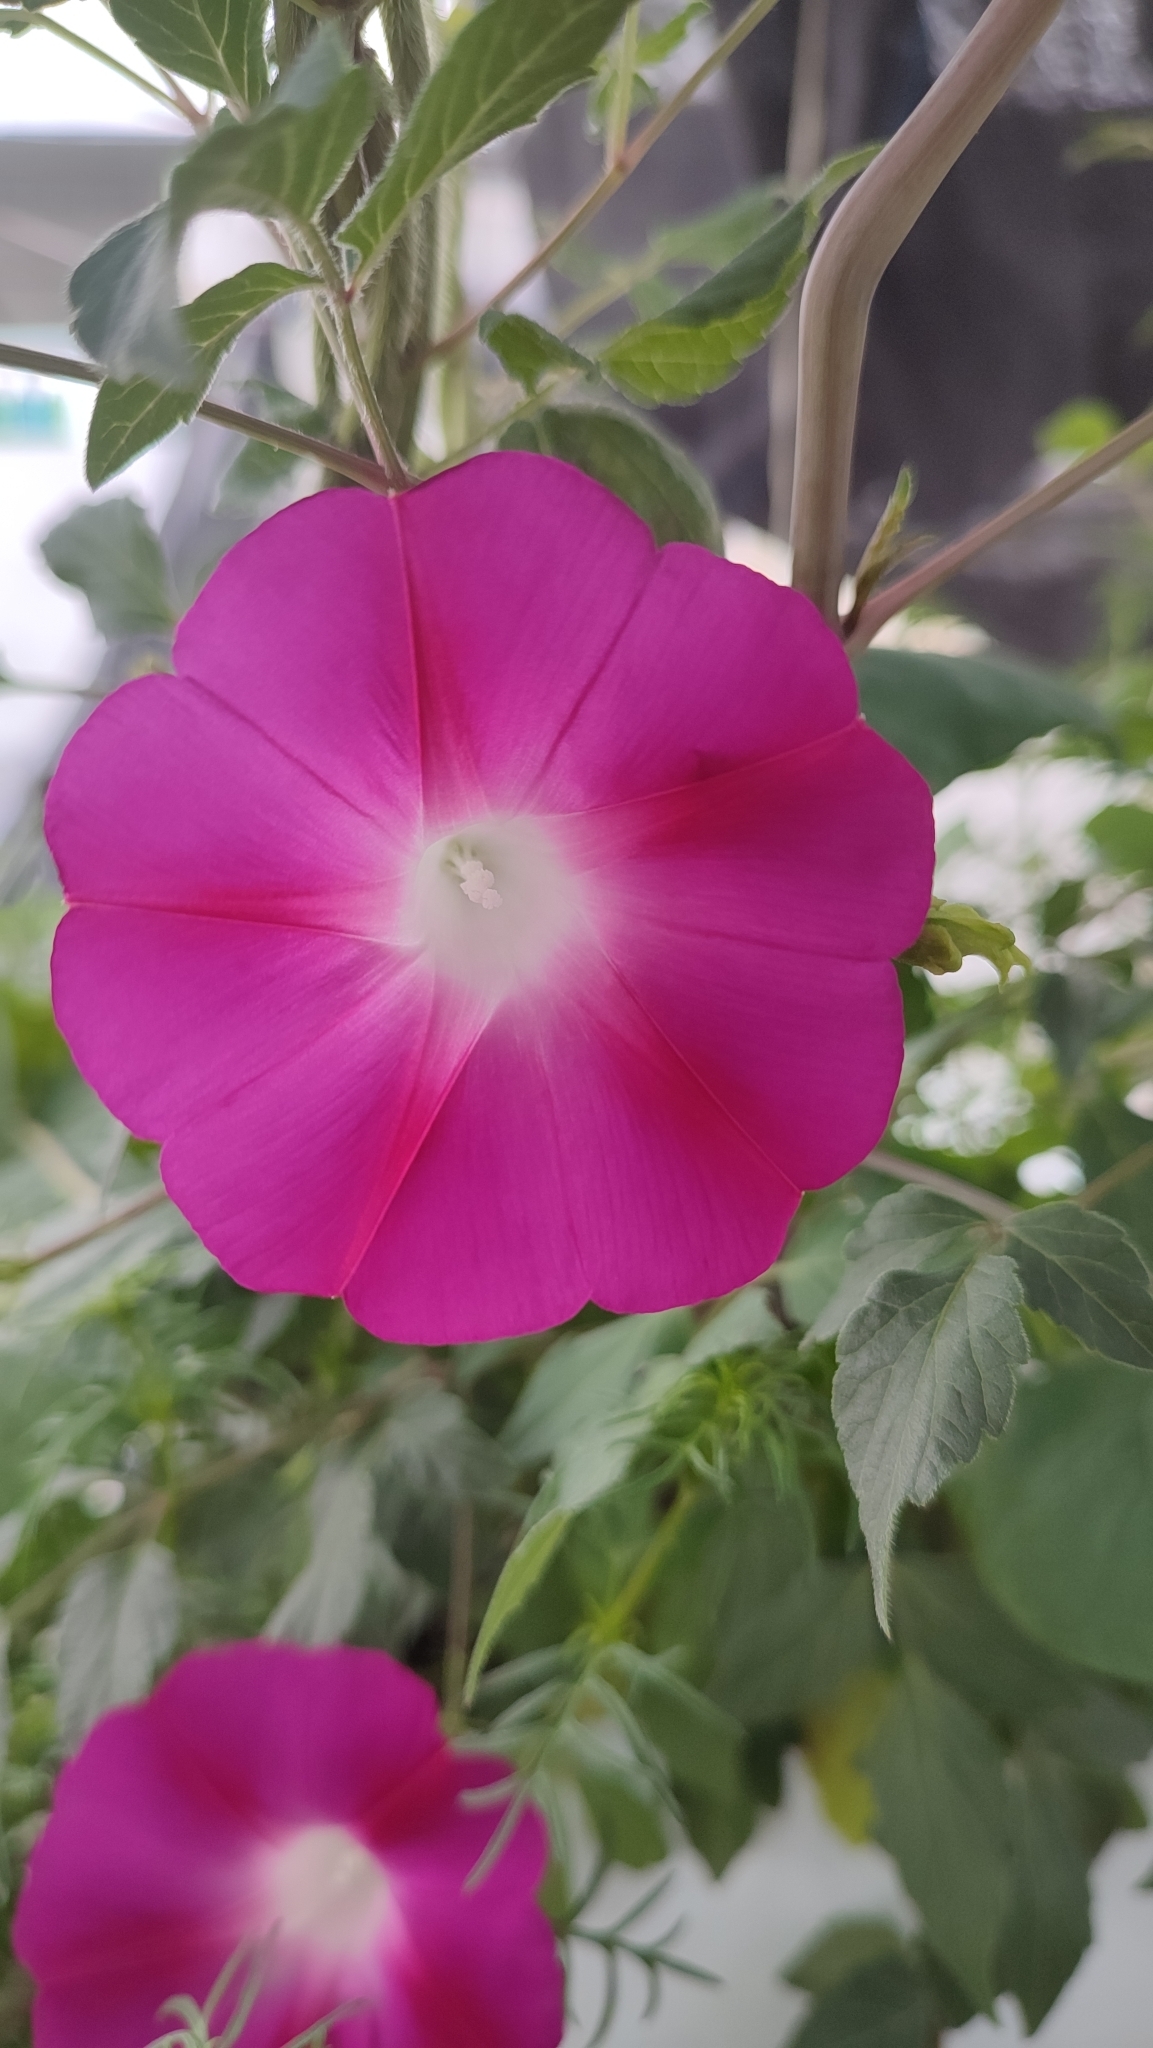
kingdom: Plantae
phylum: Tracheophyta
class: Magnoliopsida
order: Solanales
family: Convolvulaceae
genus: Ipomoea
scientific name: Ipomoea purpurea
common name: Common morning-glory
